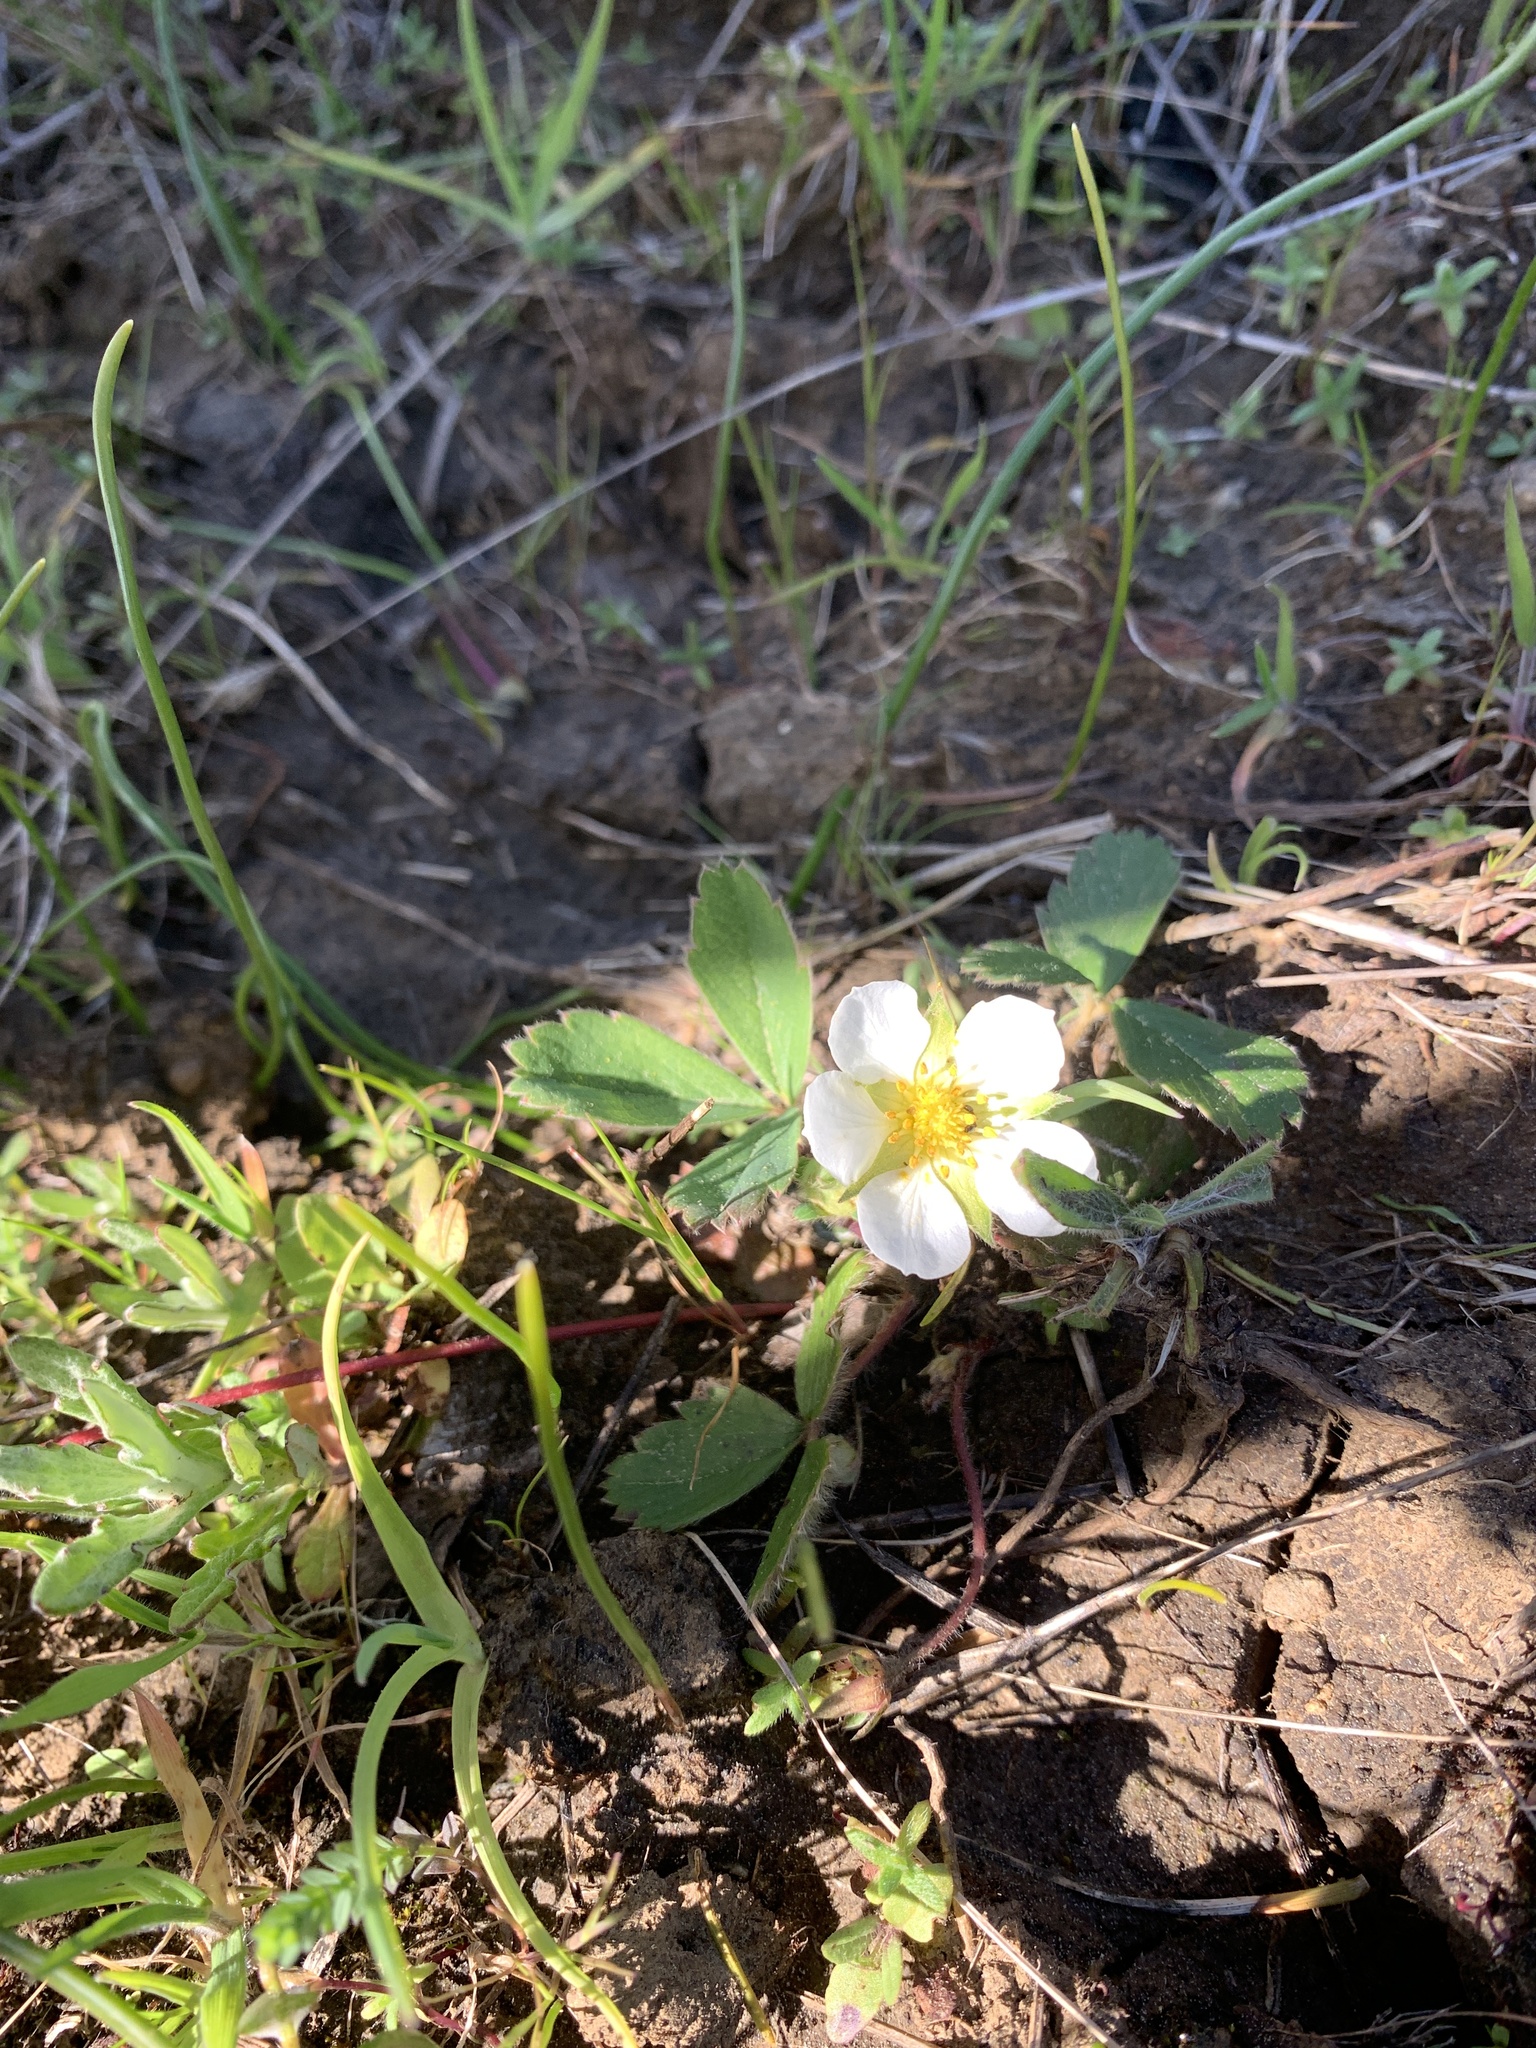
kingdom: Plantae
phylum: Tracheophyta
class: Magnoliopsida
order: Rosales
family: Rosaceae
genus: Fragaria
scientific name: Fragaria virginiana
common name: Thickleaved wild strawberry
